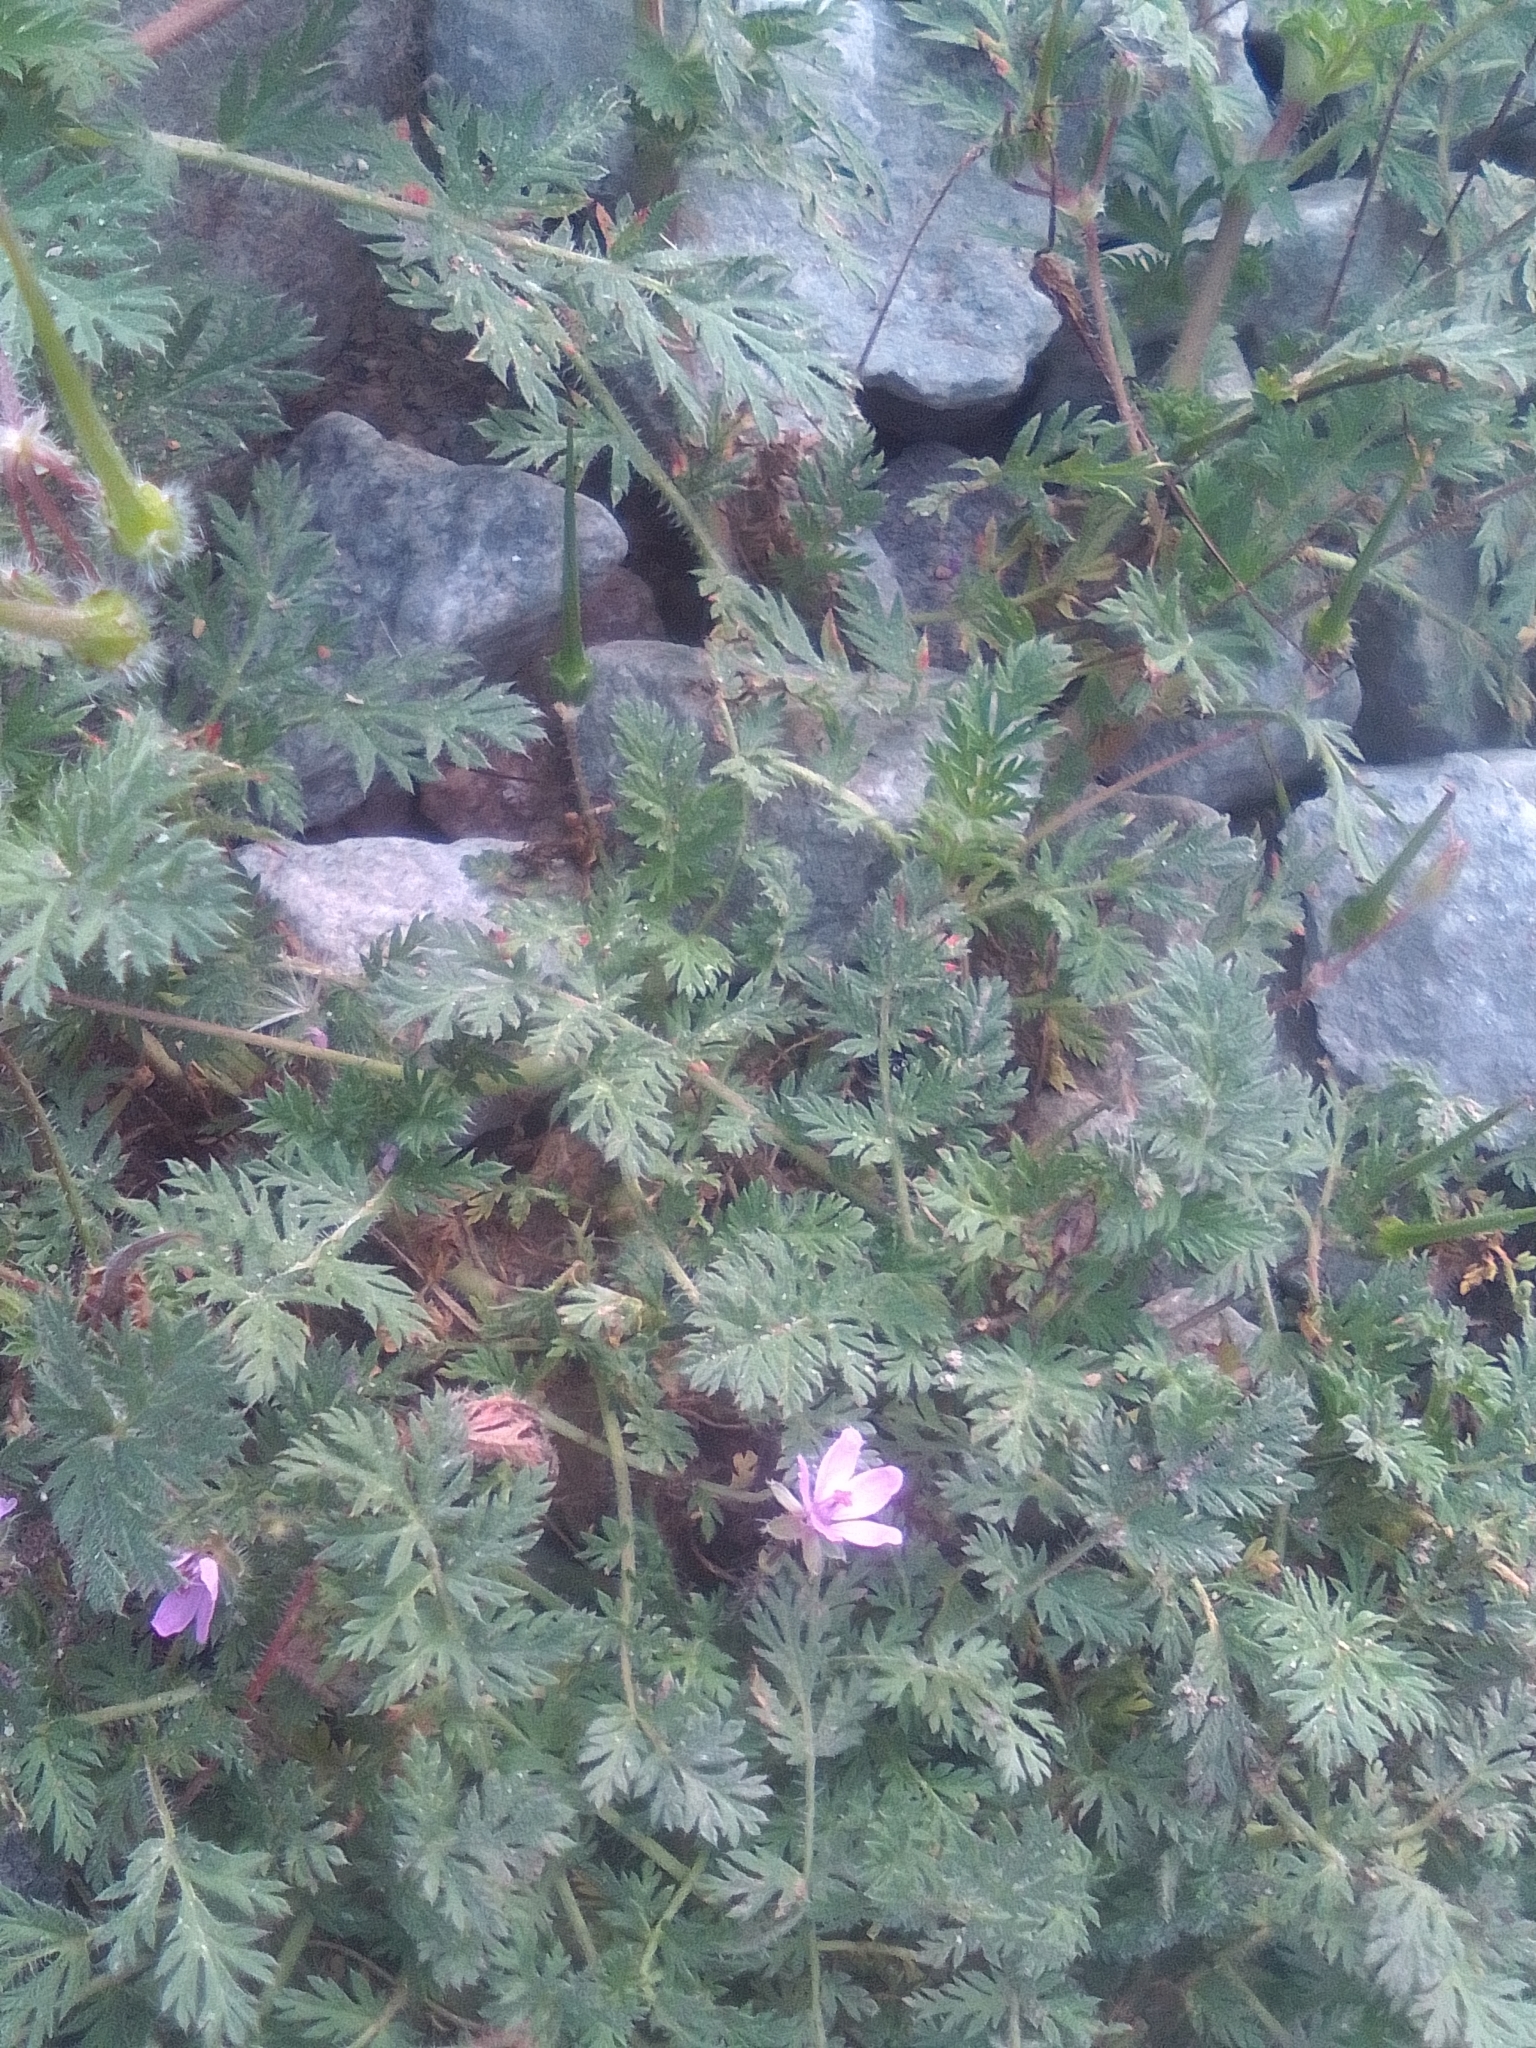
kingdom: Plantae
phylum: Tracheophyta
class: Magnoliopsida
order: Geraniales
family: Geraniaceae
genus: Erodium
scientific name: Erodium cicutarium
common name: Common stork's-bill
